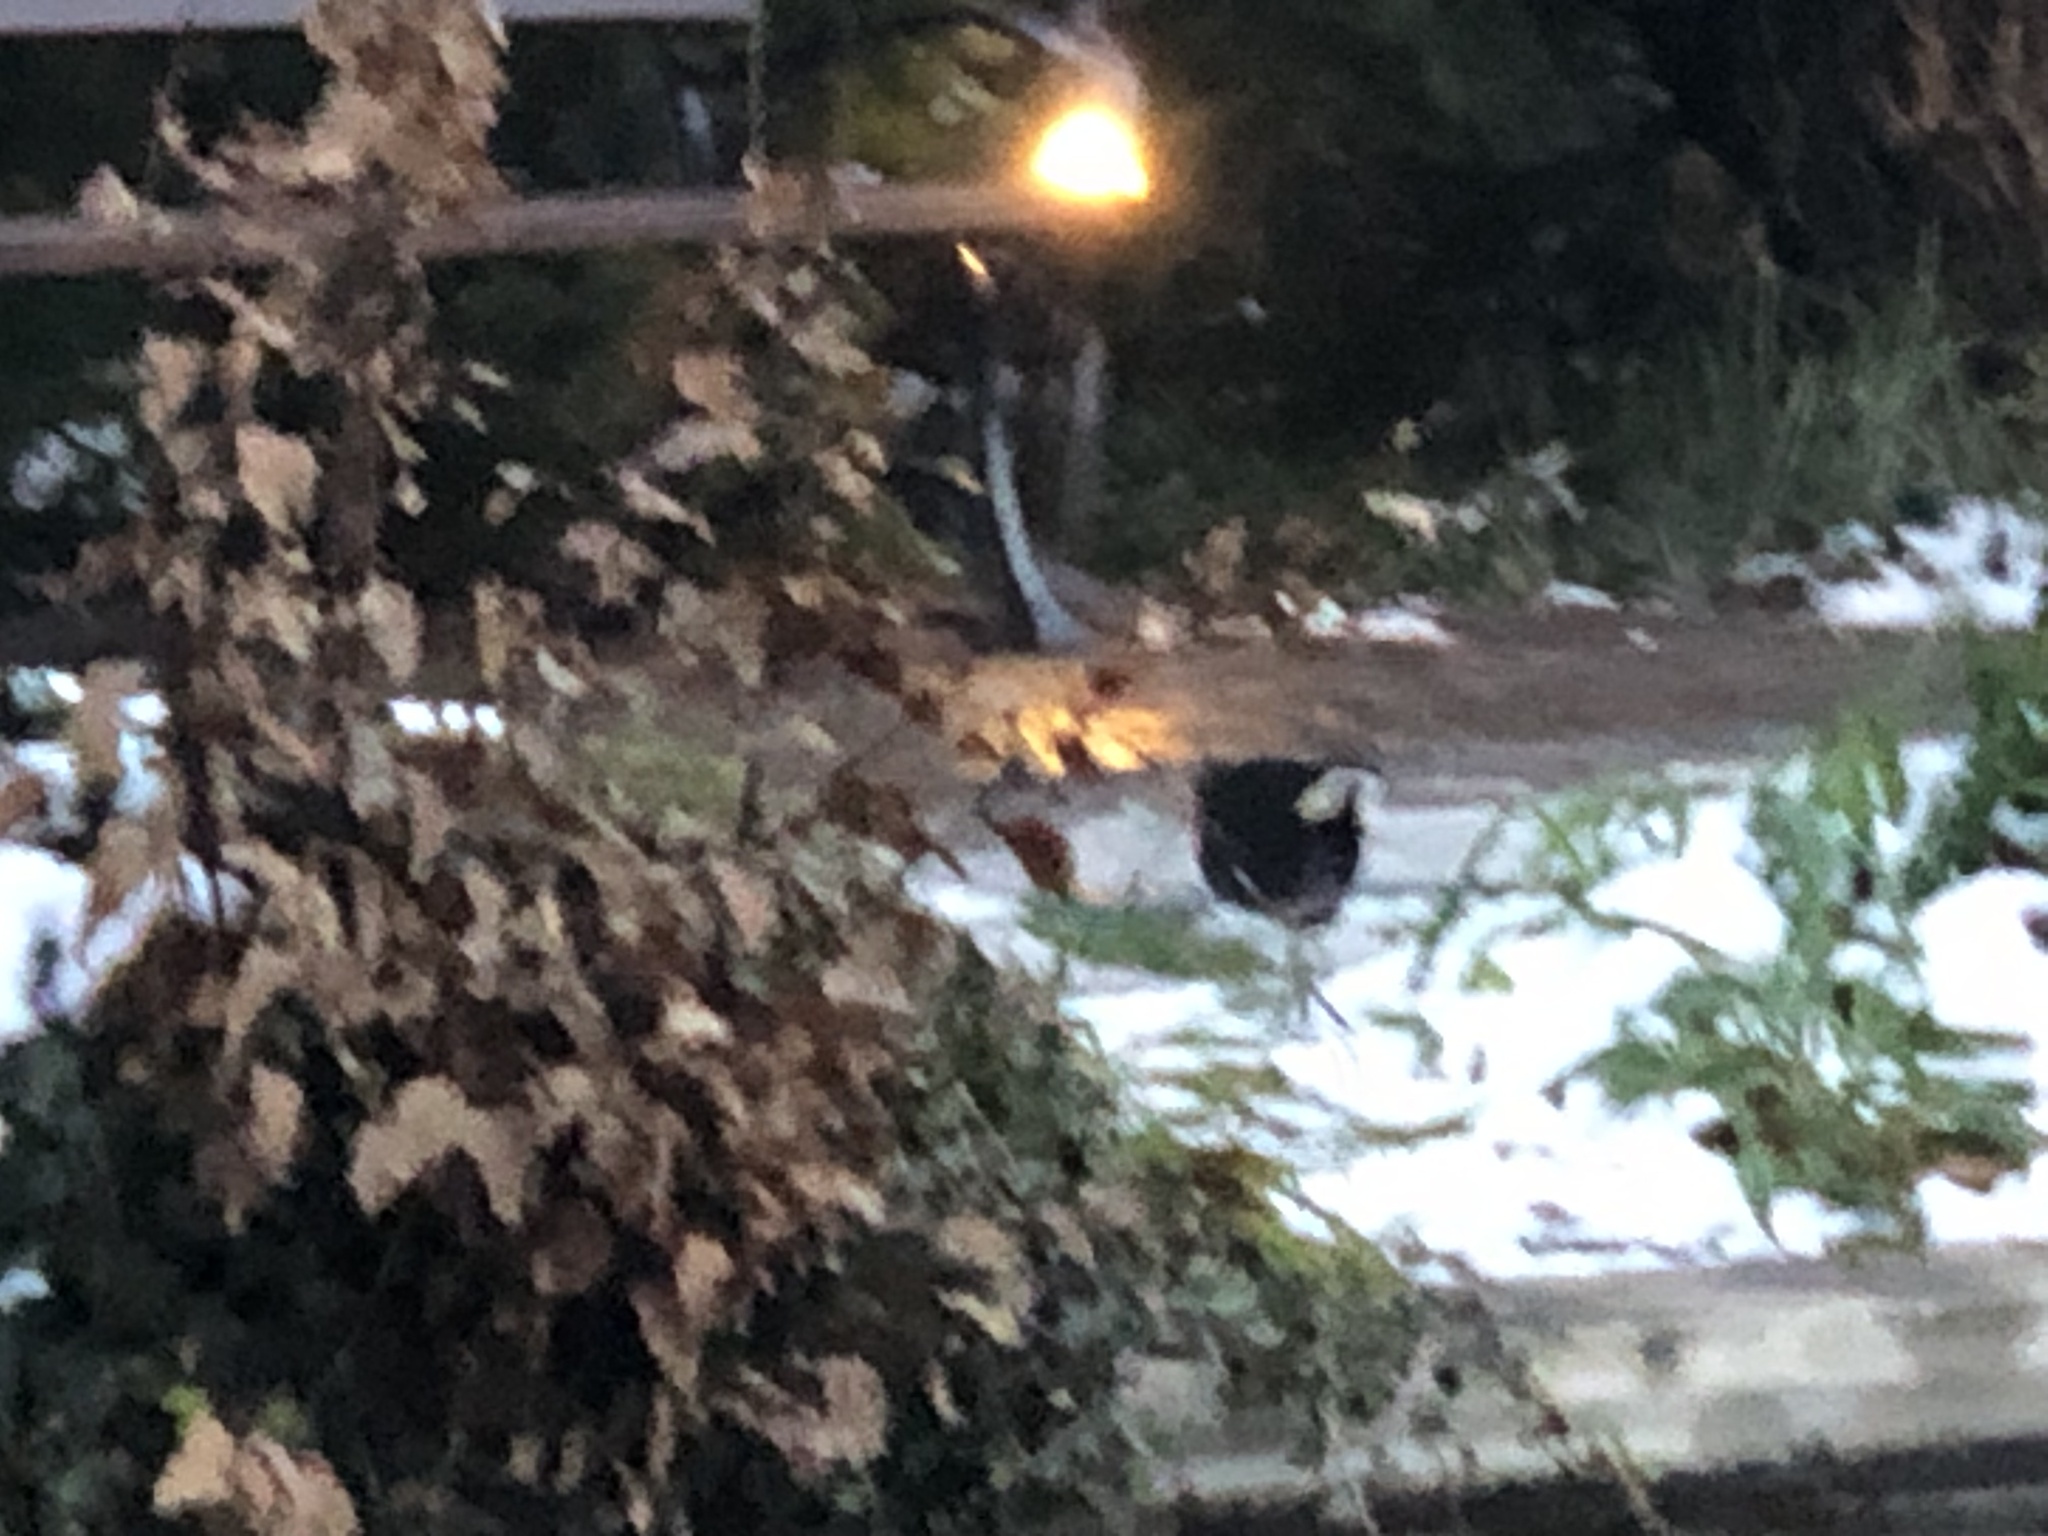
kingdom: Animalia
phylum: Chordata
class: Aves
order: Gruiformes
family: Rallidae
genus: Gallinula
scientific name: Gallinula chloropus
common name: Common moorhen
